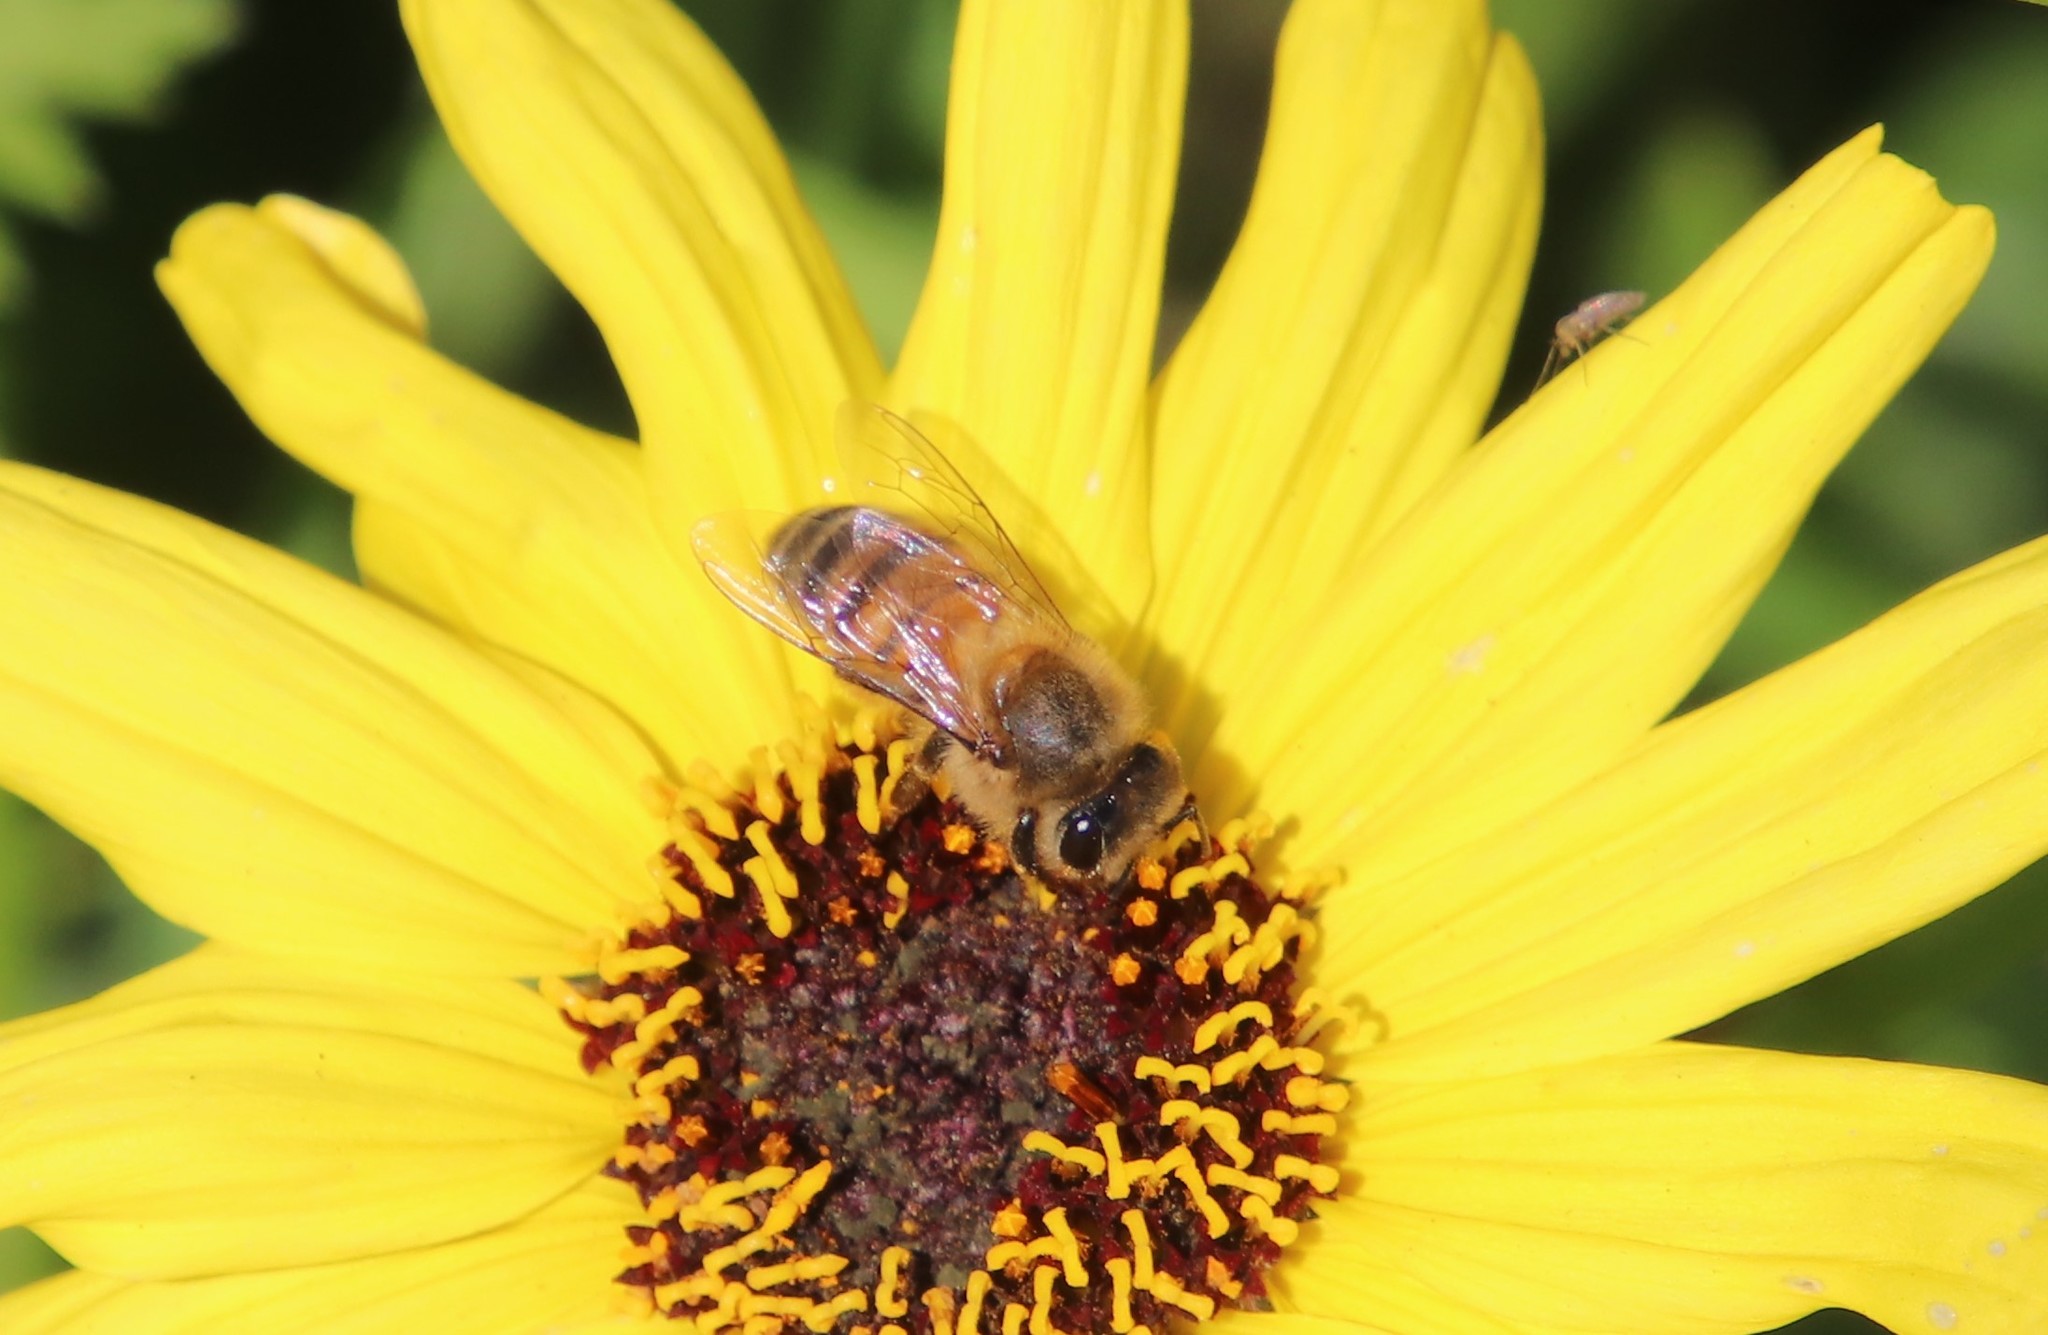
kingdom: Animalia
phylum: Arthropoda
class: Insecta
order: Hymenoptera
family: Apidae
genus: Apis
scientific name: Apis mellifera
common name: Honey bee
